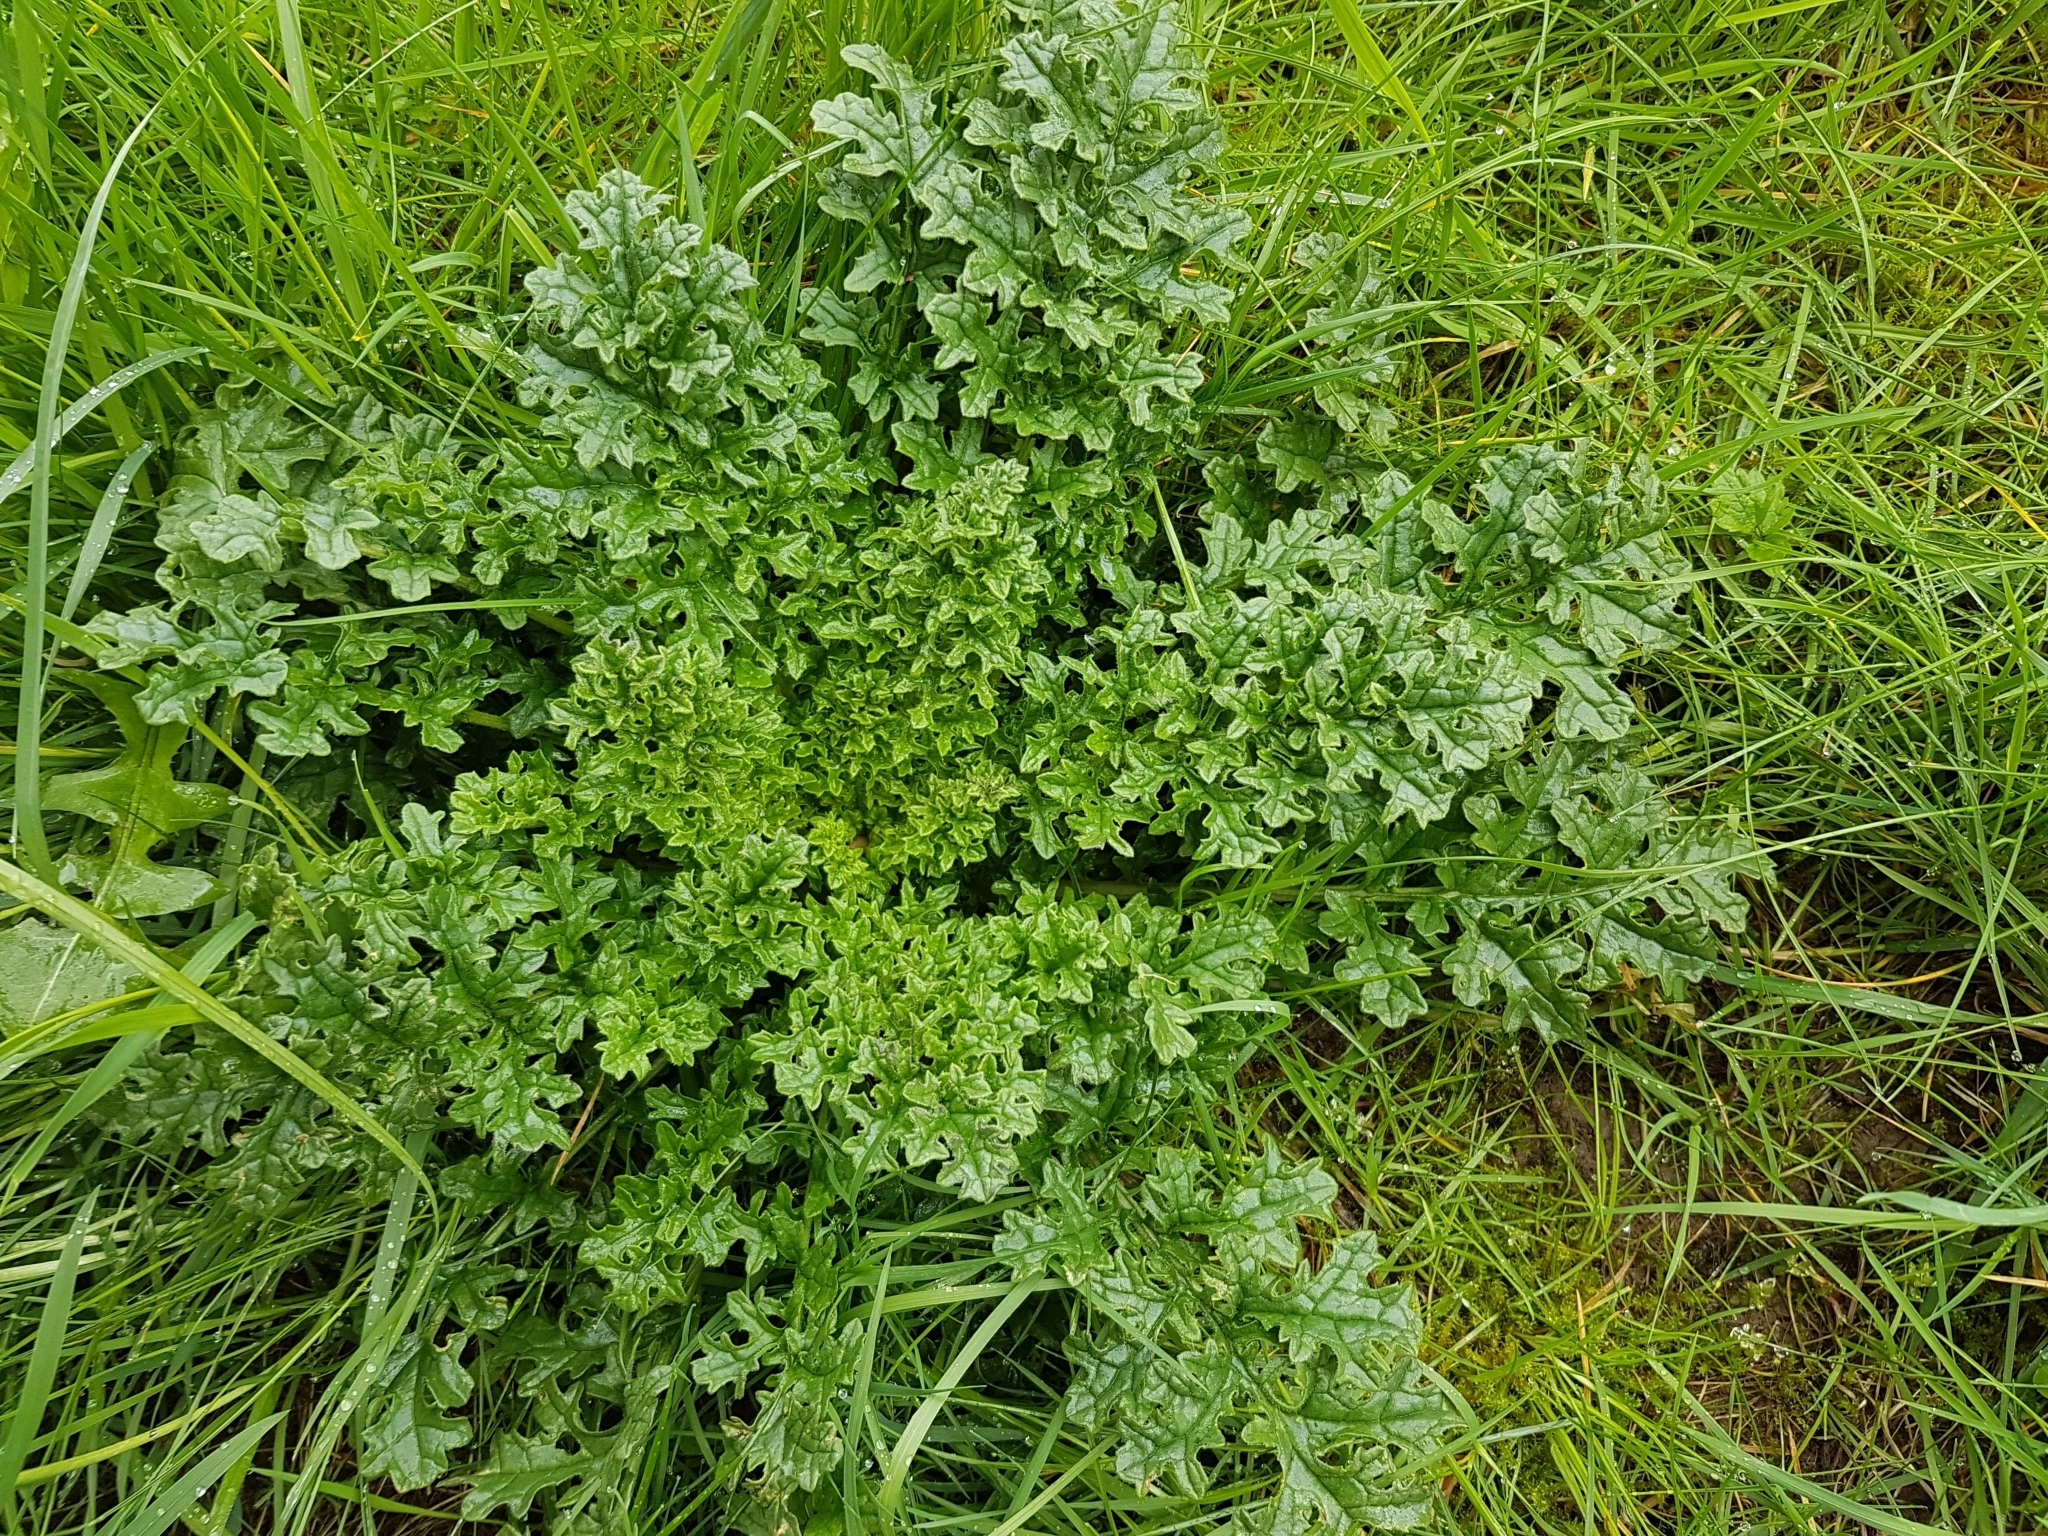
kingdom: Plantae
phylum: Tracheophyta
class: Magnoliopsida
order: Asterales
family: Asteraceae
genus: Jacobaea
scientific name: Jacobaea vulgaris
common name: Stinking willie
